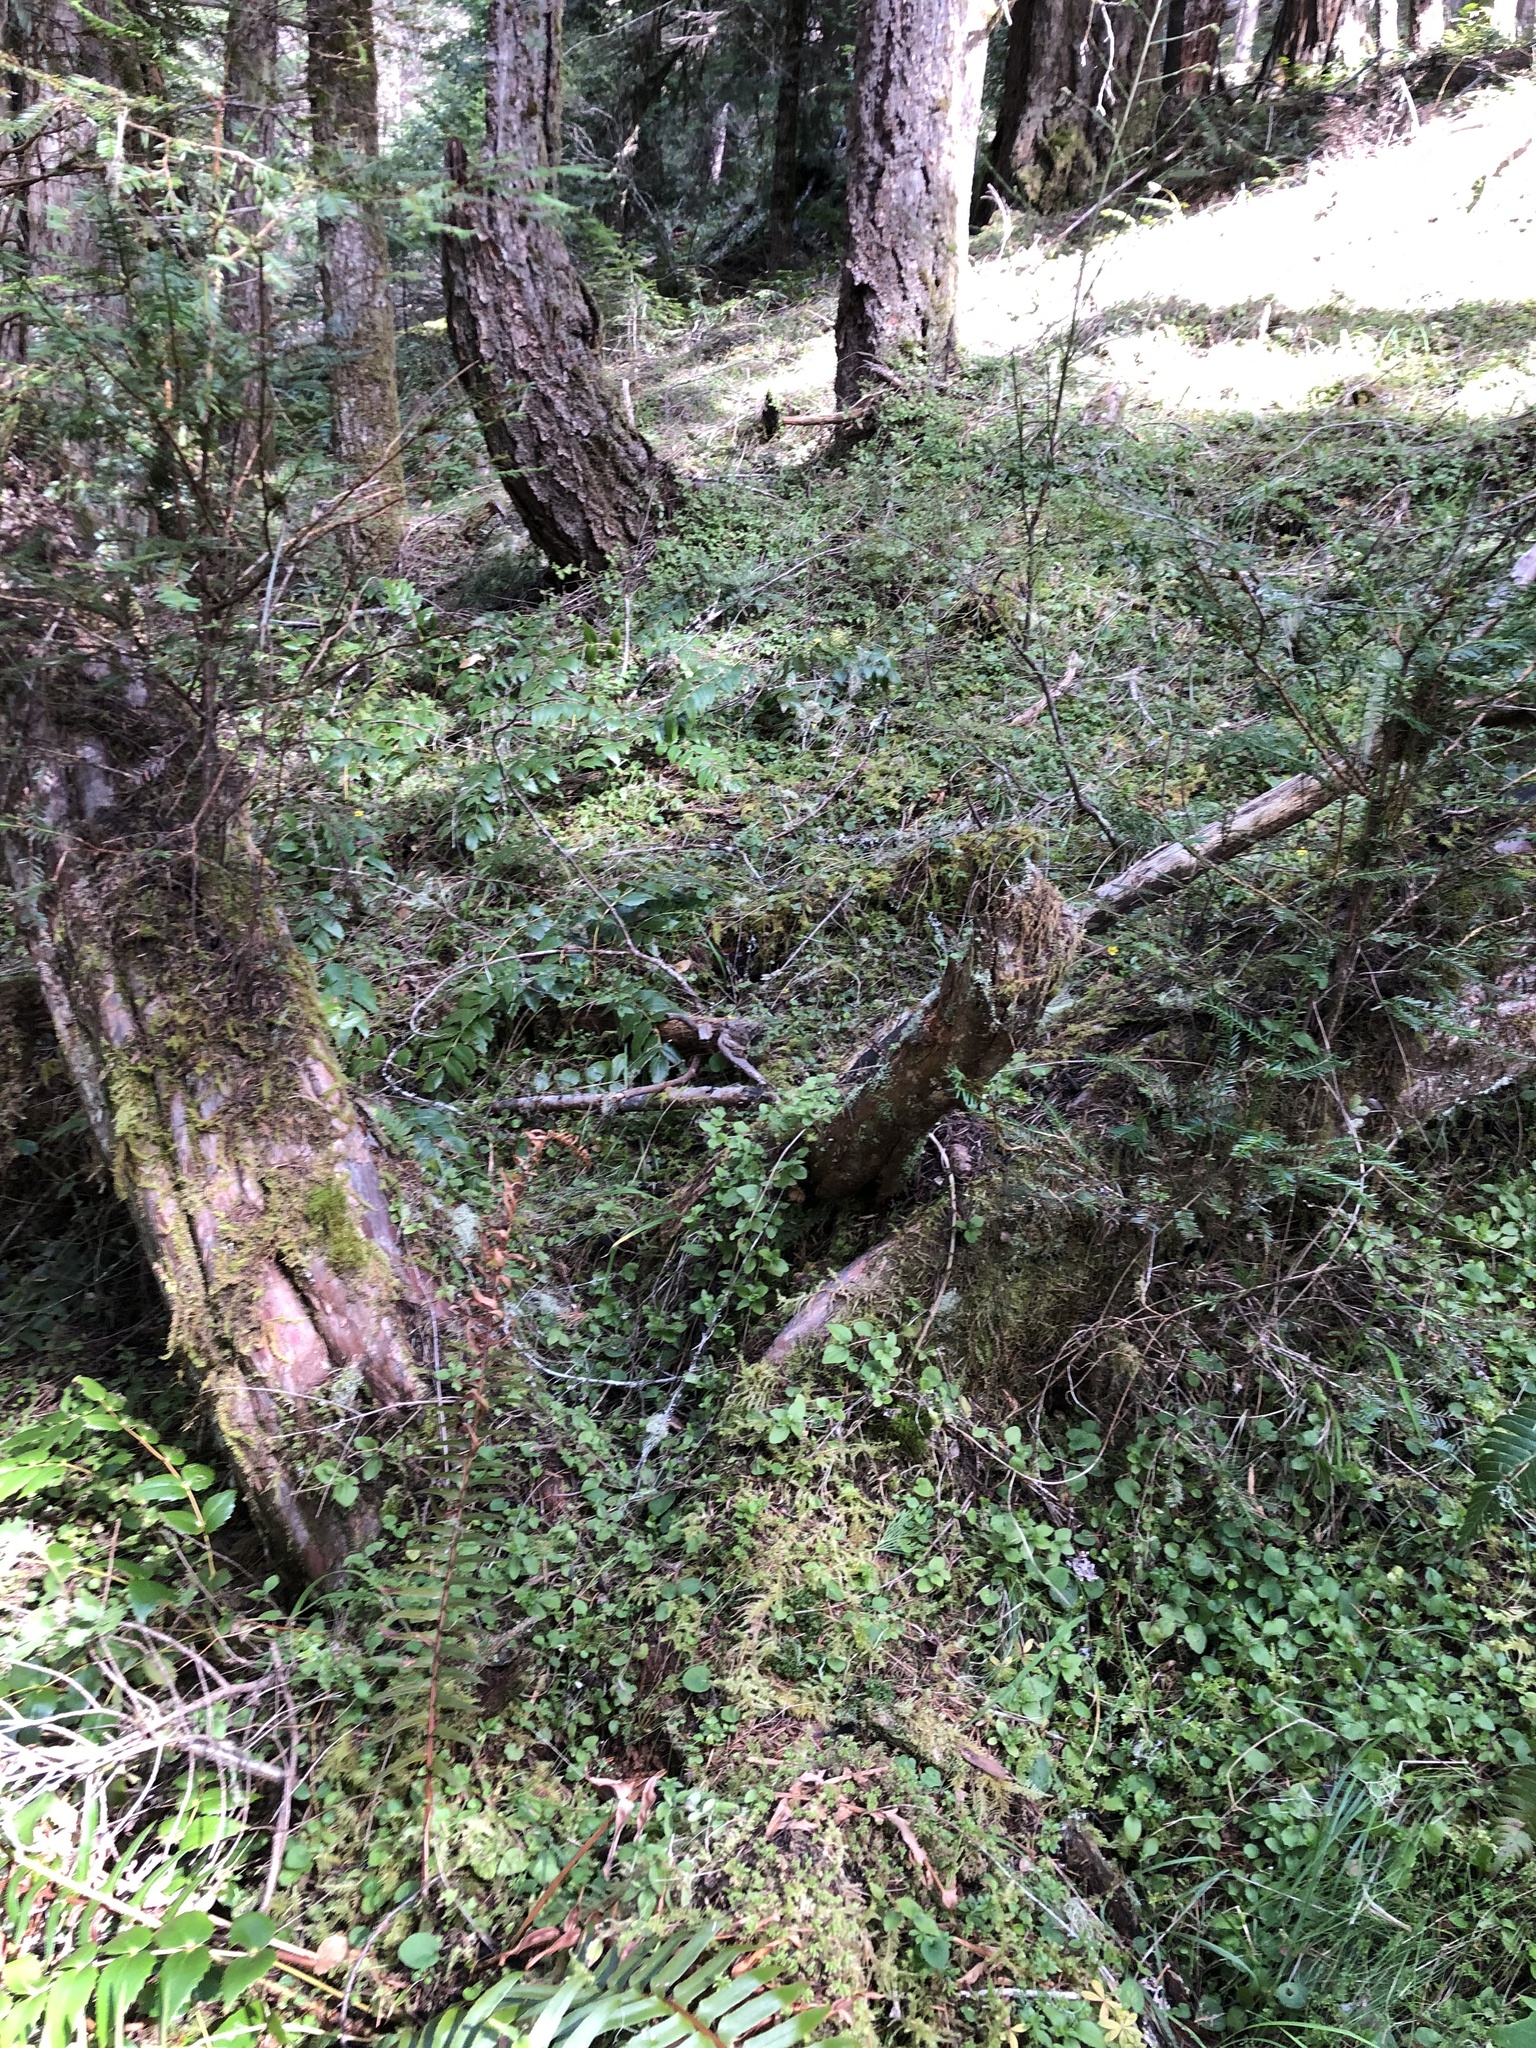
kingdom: Plantae
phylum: Tracheophyta
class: Pinopsida
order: Pinales
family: Taxaceae
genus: Taxus
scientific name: Taxus brevifolia
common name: Pacific yew
